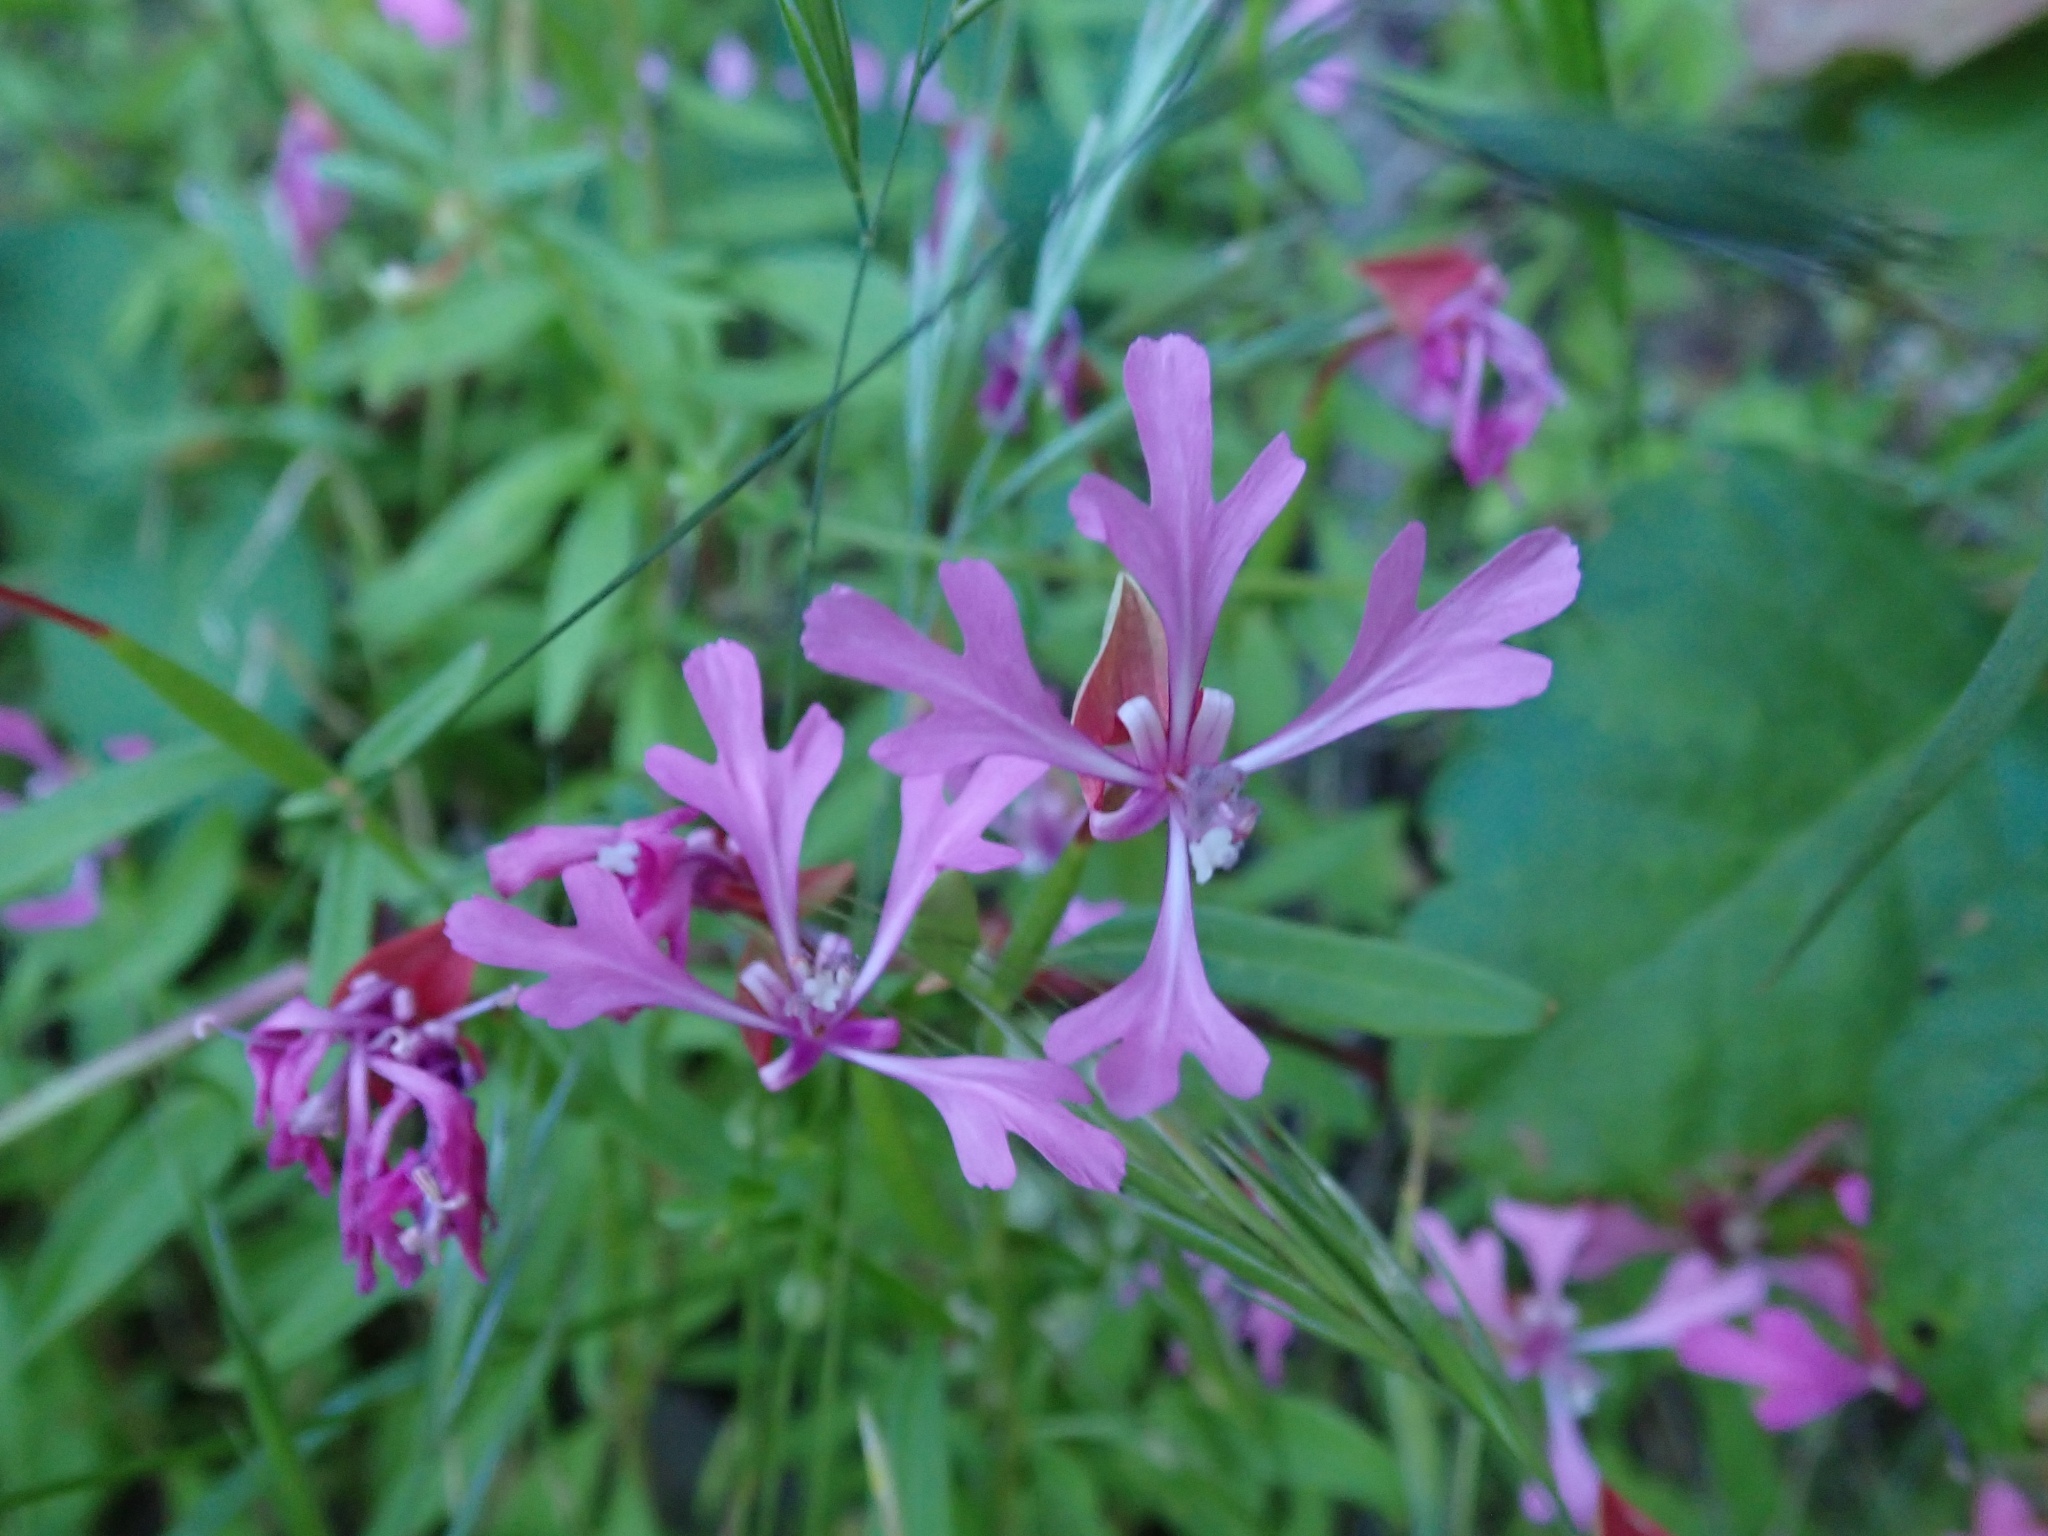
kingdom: Plantae
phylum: Tracheophyta
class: Magnoliopsida
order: Myrtales
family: Onagraceae
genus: Clarkia
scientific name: Clarkia concinna
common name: Red-ribbons
